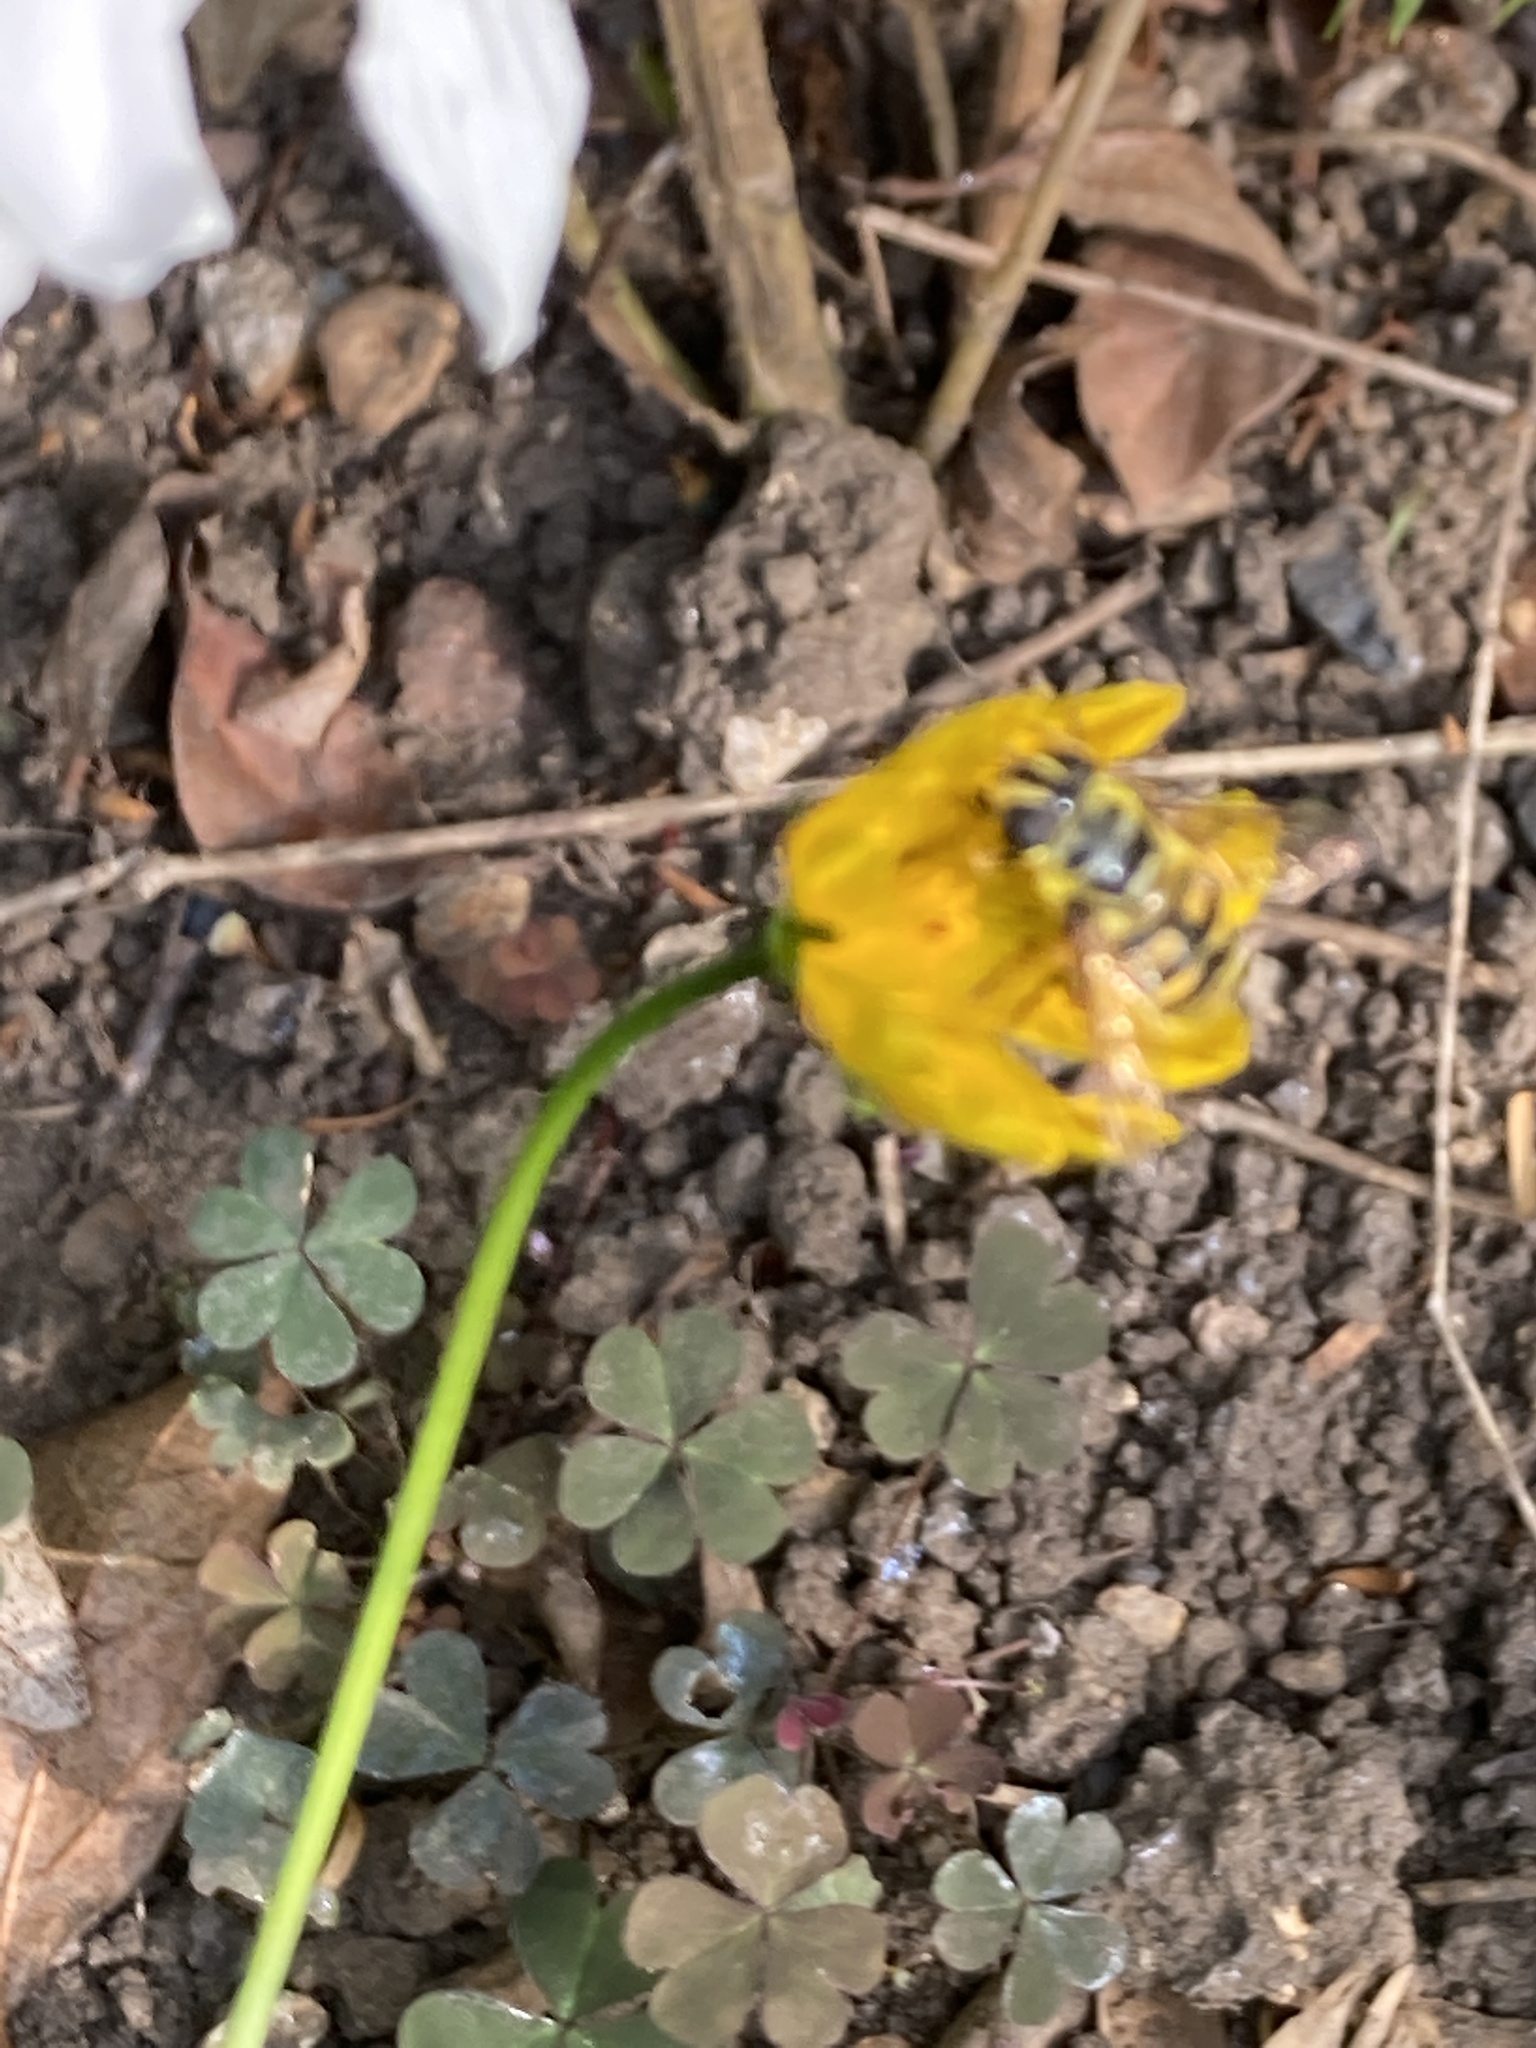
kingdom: Animalia
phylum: Arthropoda
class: Insecta
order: Diptera
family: Syrphidae
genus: Myathropa
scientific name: Myathropa florea
